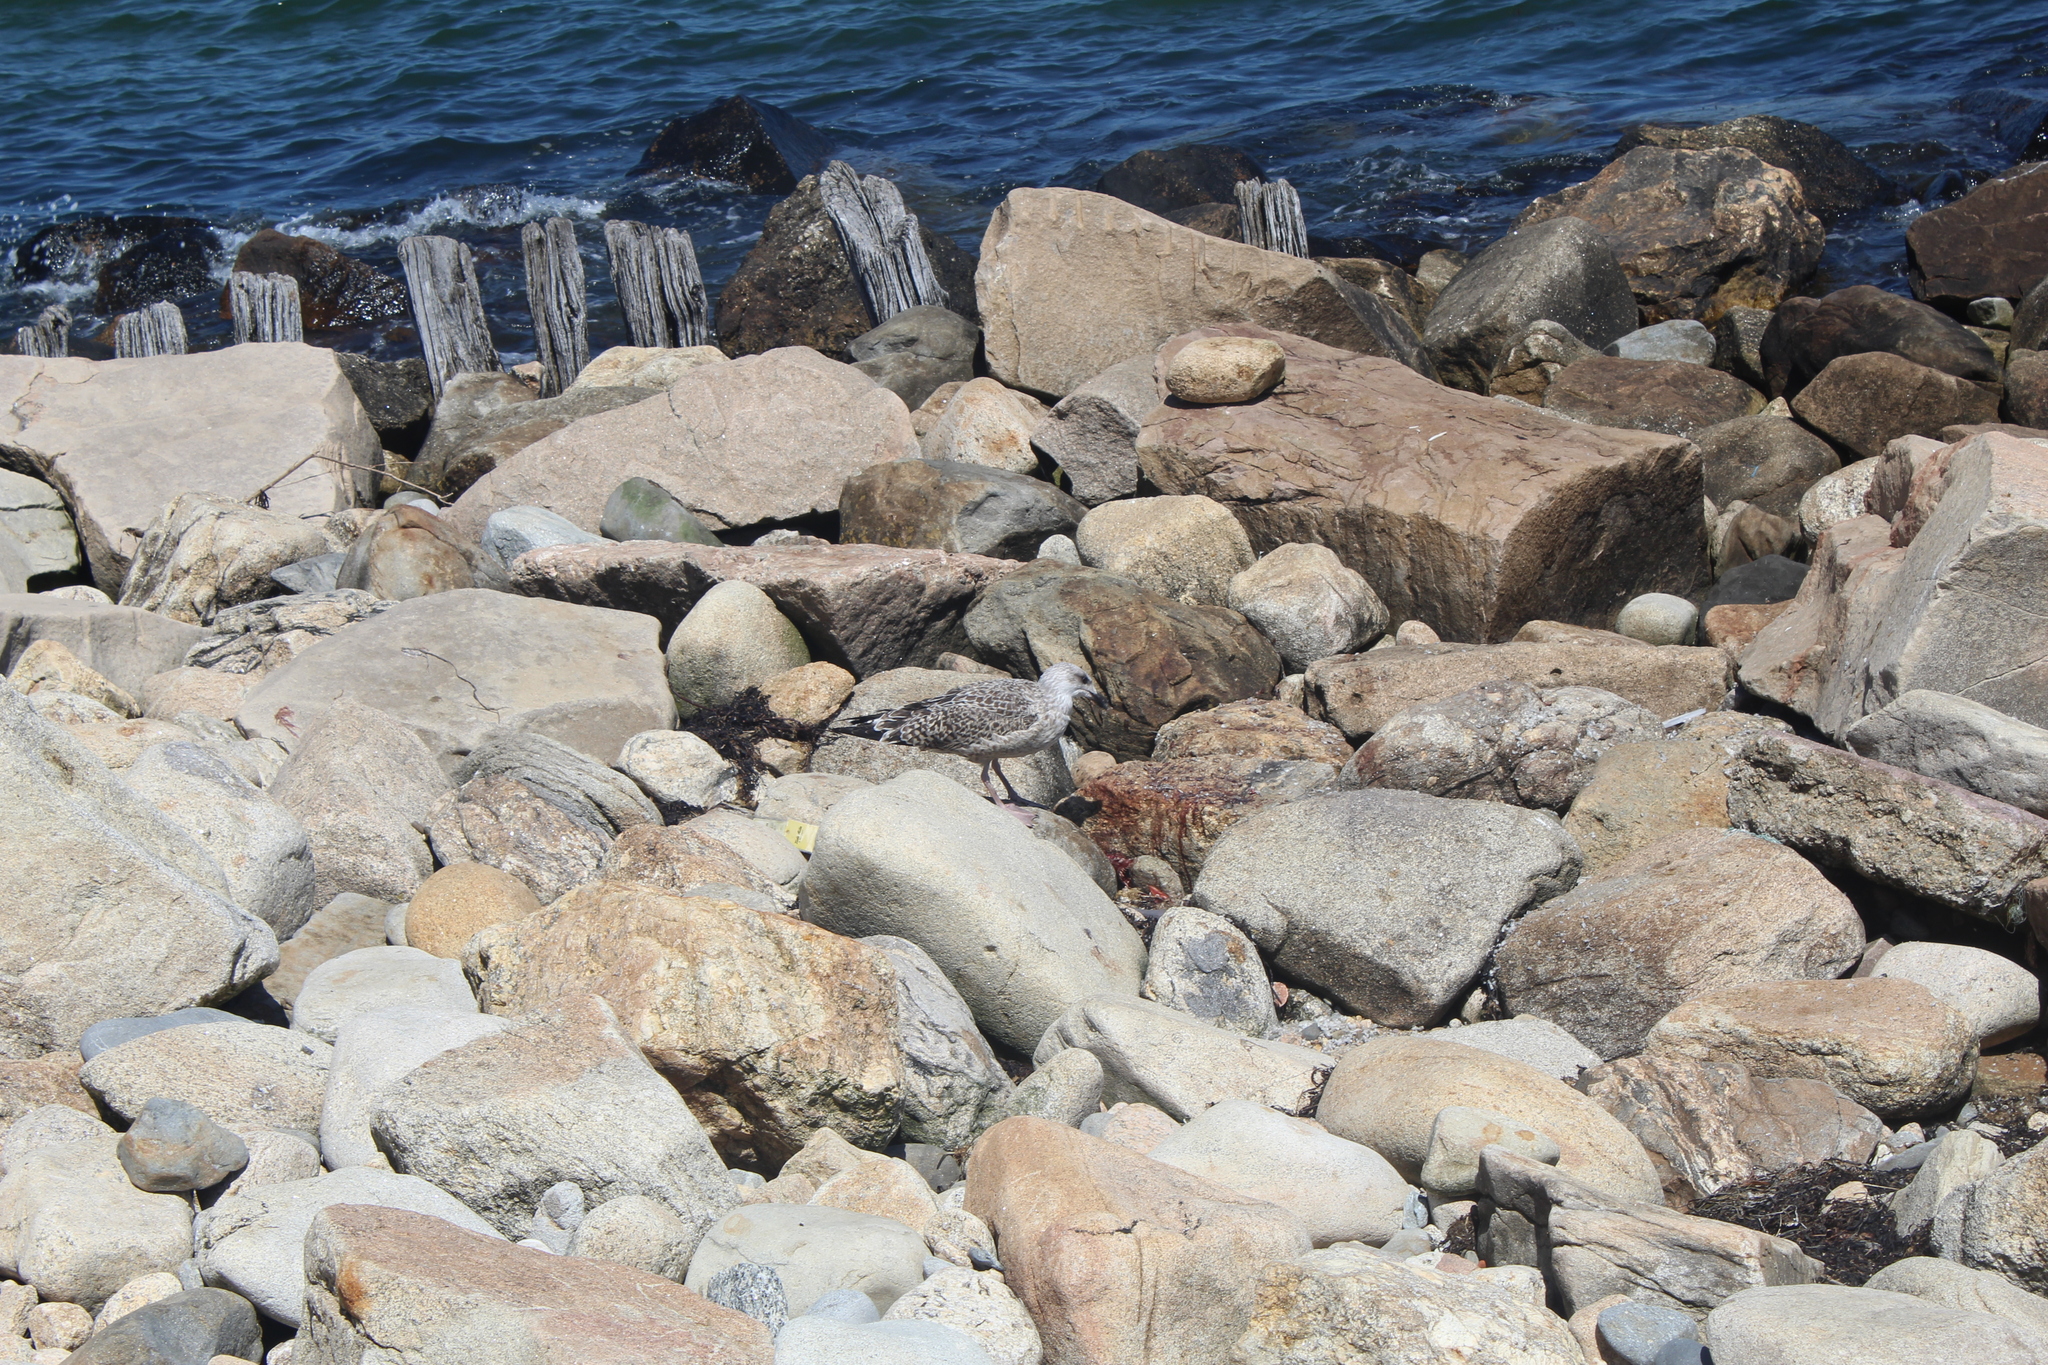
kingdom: Animalia
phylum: Chordata
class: Aves
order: Charadriiformes
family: Laridae
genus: Larus
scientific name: Larus smithsonianus
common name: American herring gull
